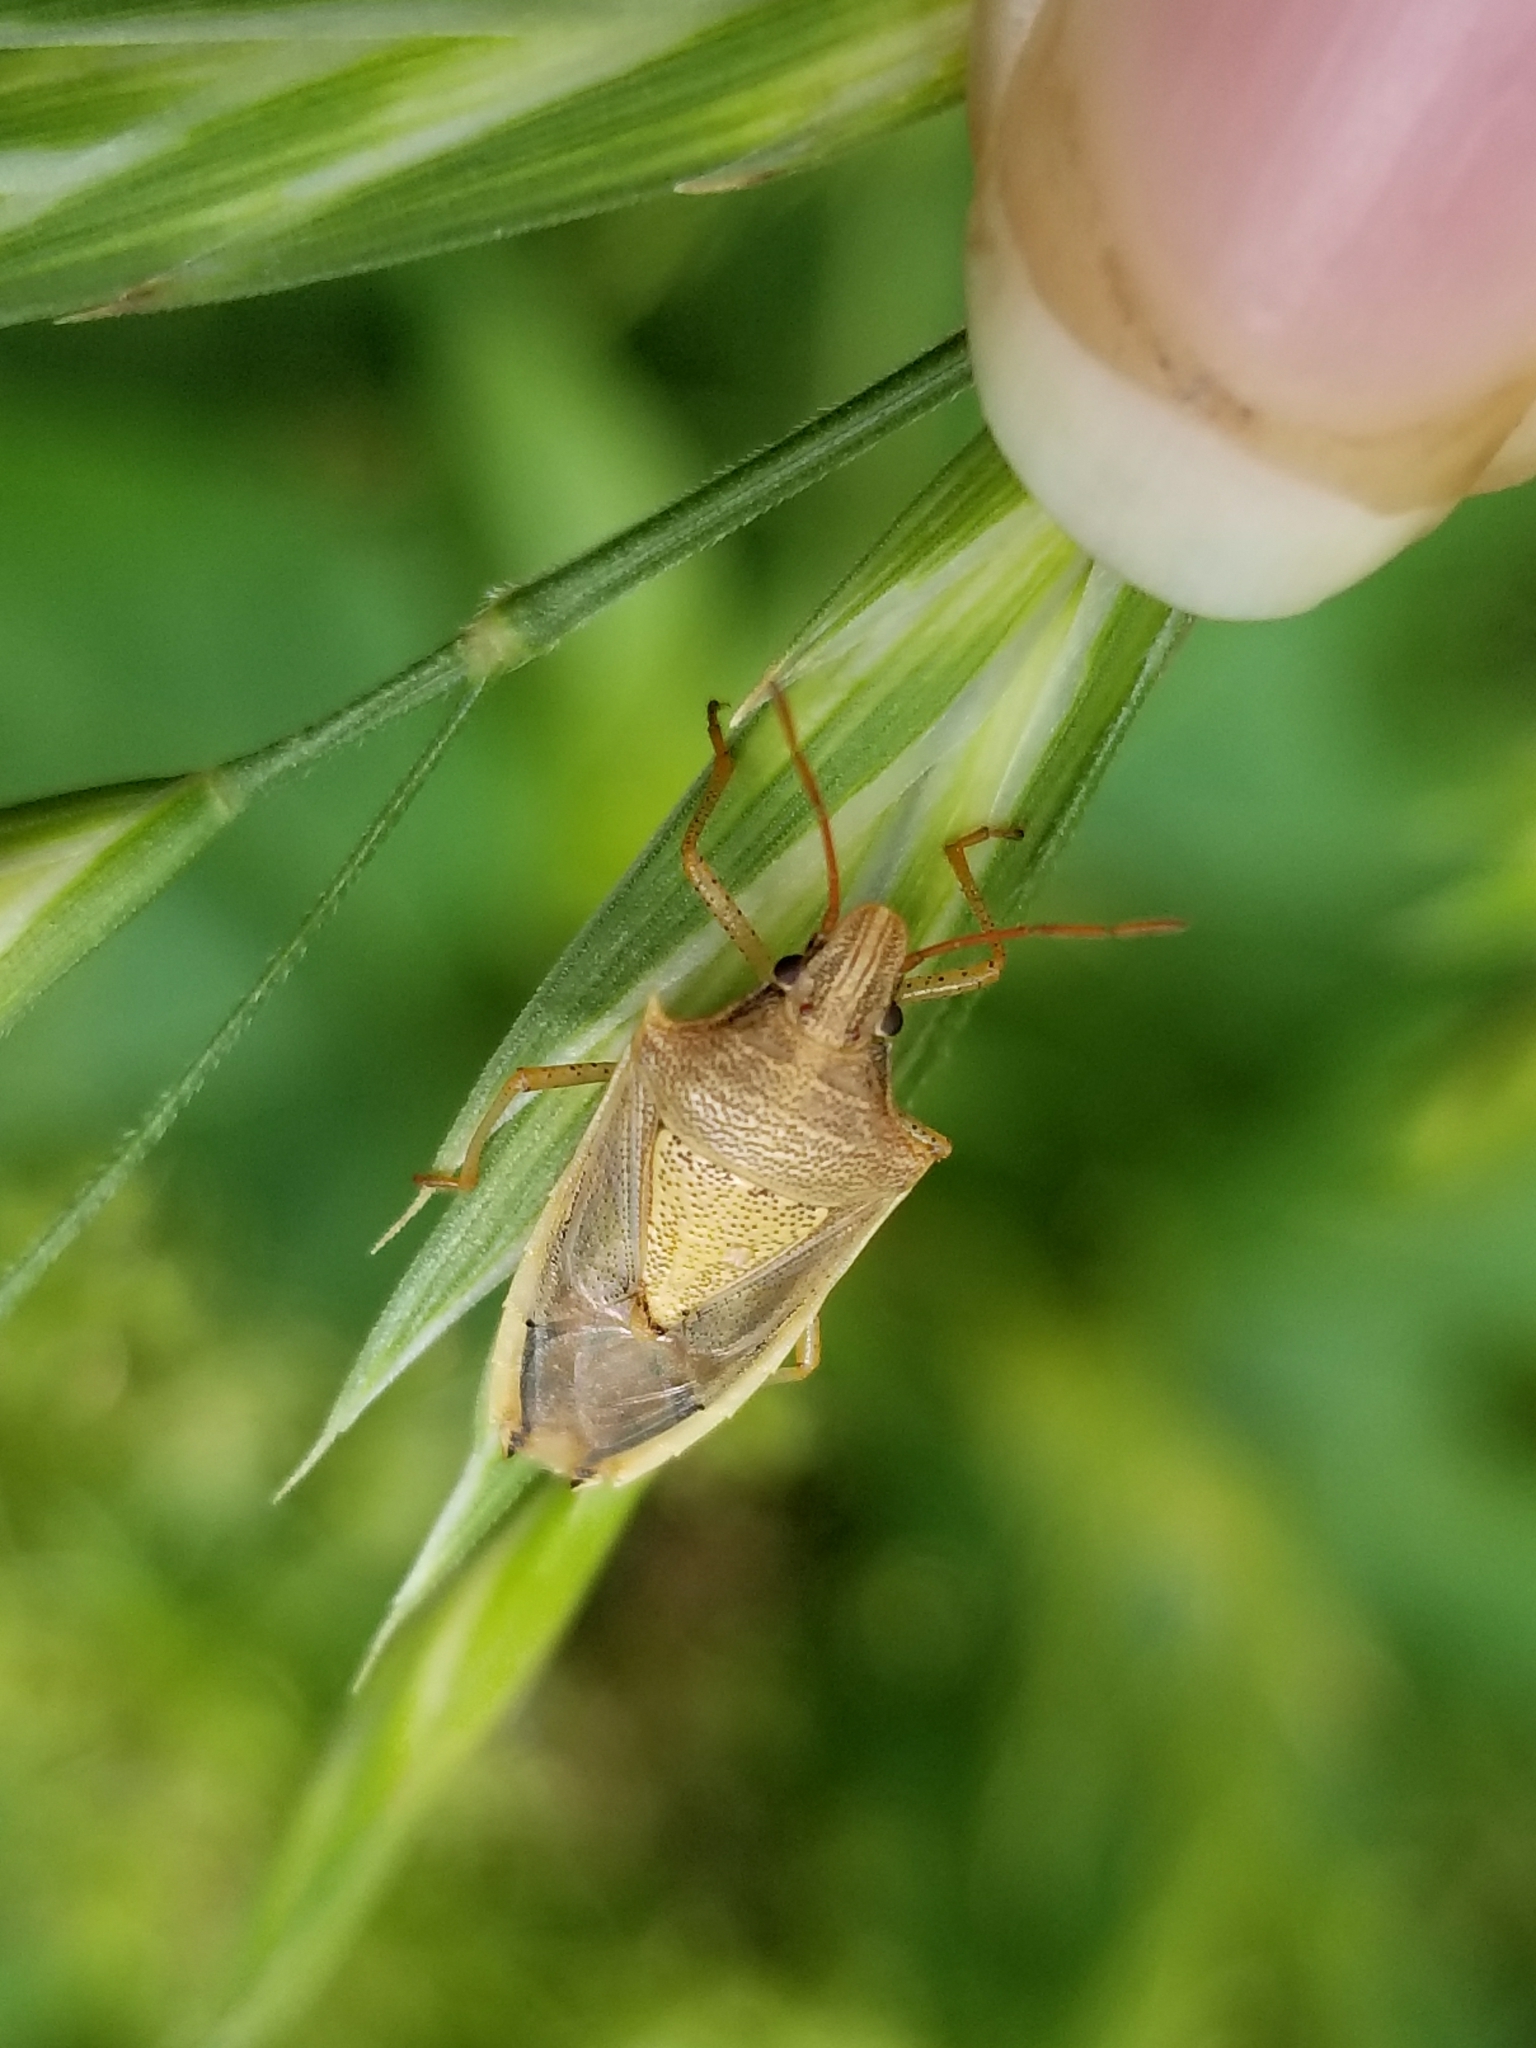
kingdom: Animalia
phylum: Arthropoda
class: Insecta
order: Hemiptera
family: Pentatomidae
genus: Oebalus
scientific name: Oebalus pugnax
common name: Rice stink bug
